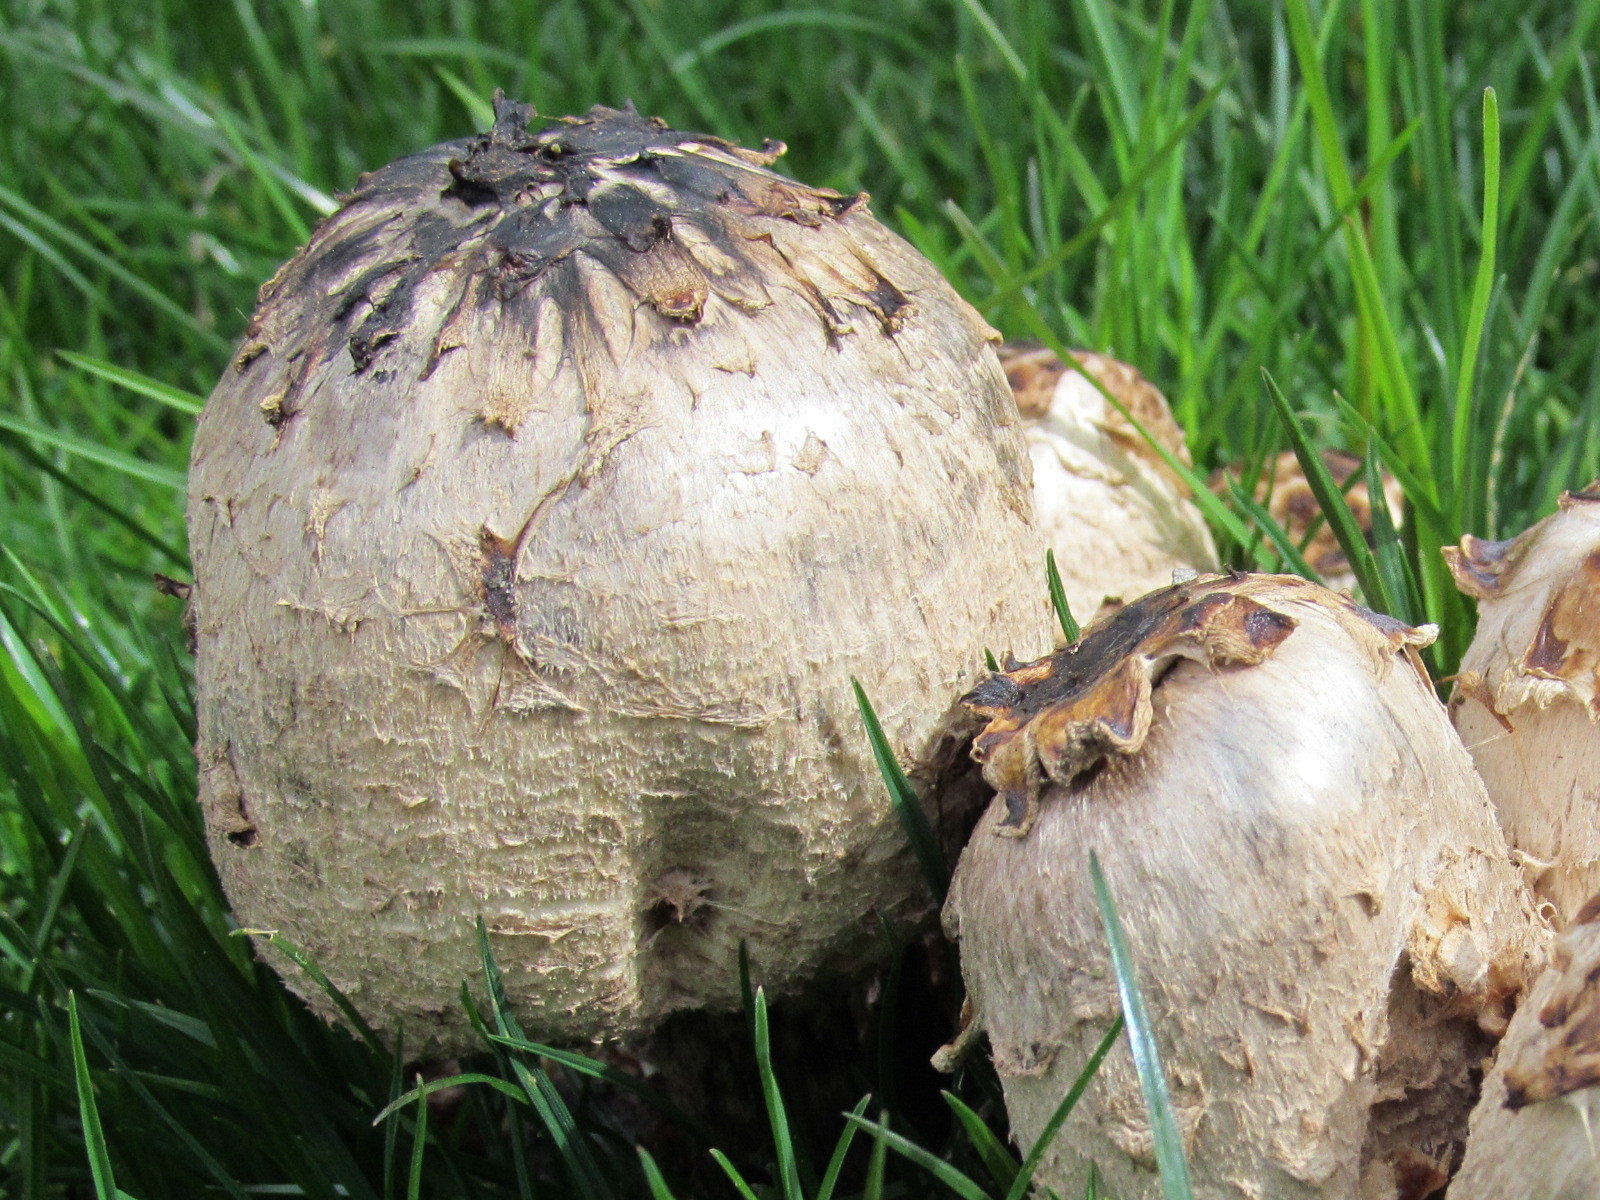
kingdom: Fungi
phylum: Basidiomycota
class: Agaricomycetes
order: Agaricales
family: Agaricaceae
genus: Coprinus
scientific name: Coprinus comatus
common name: Lawyer's wig
